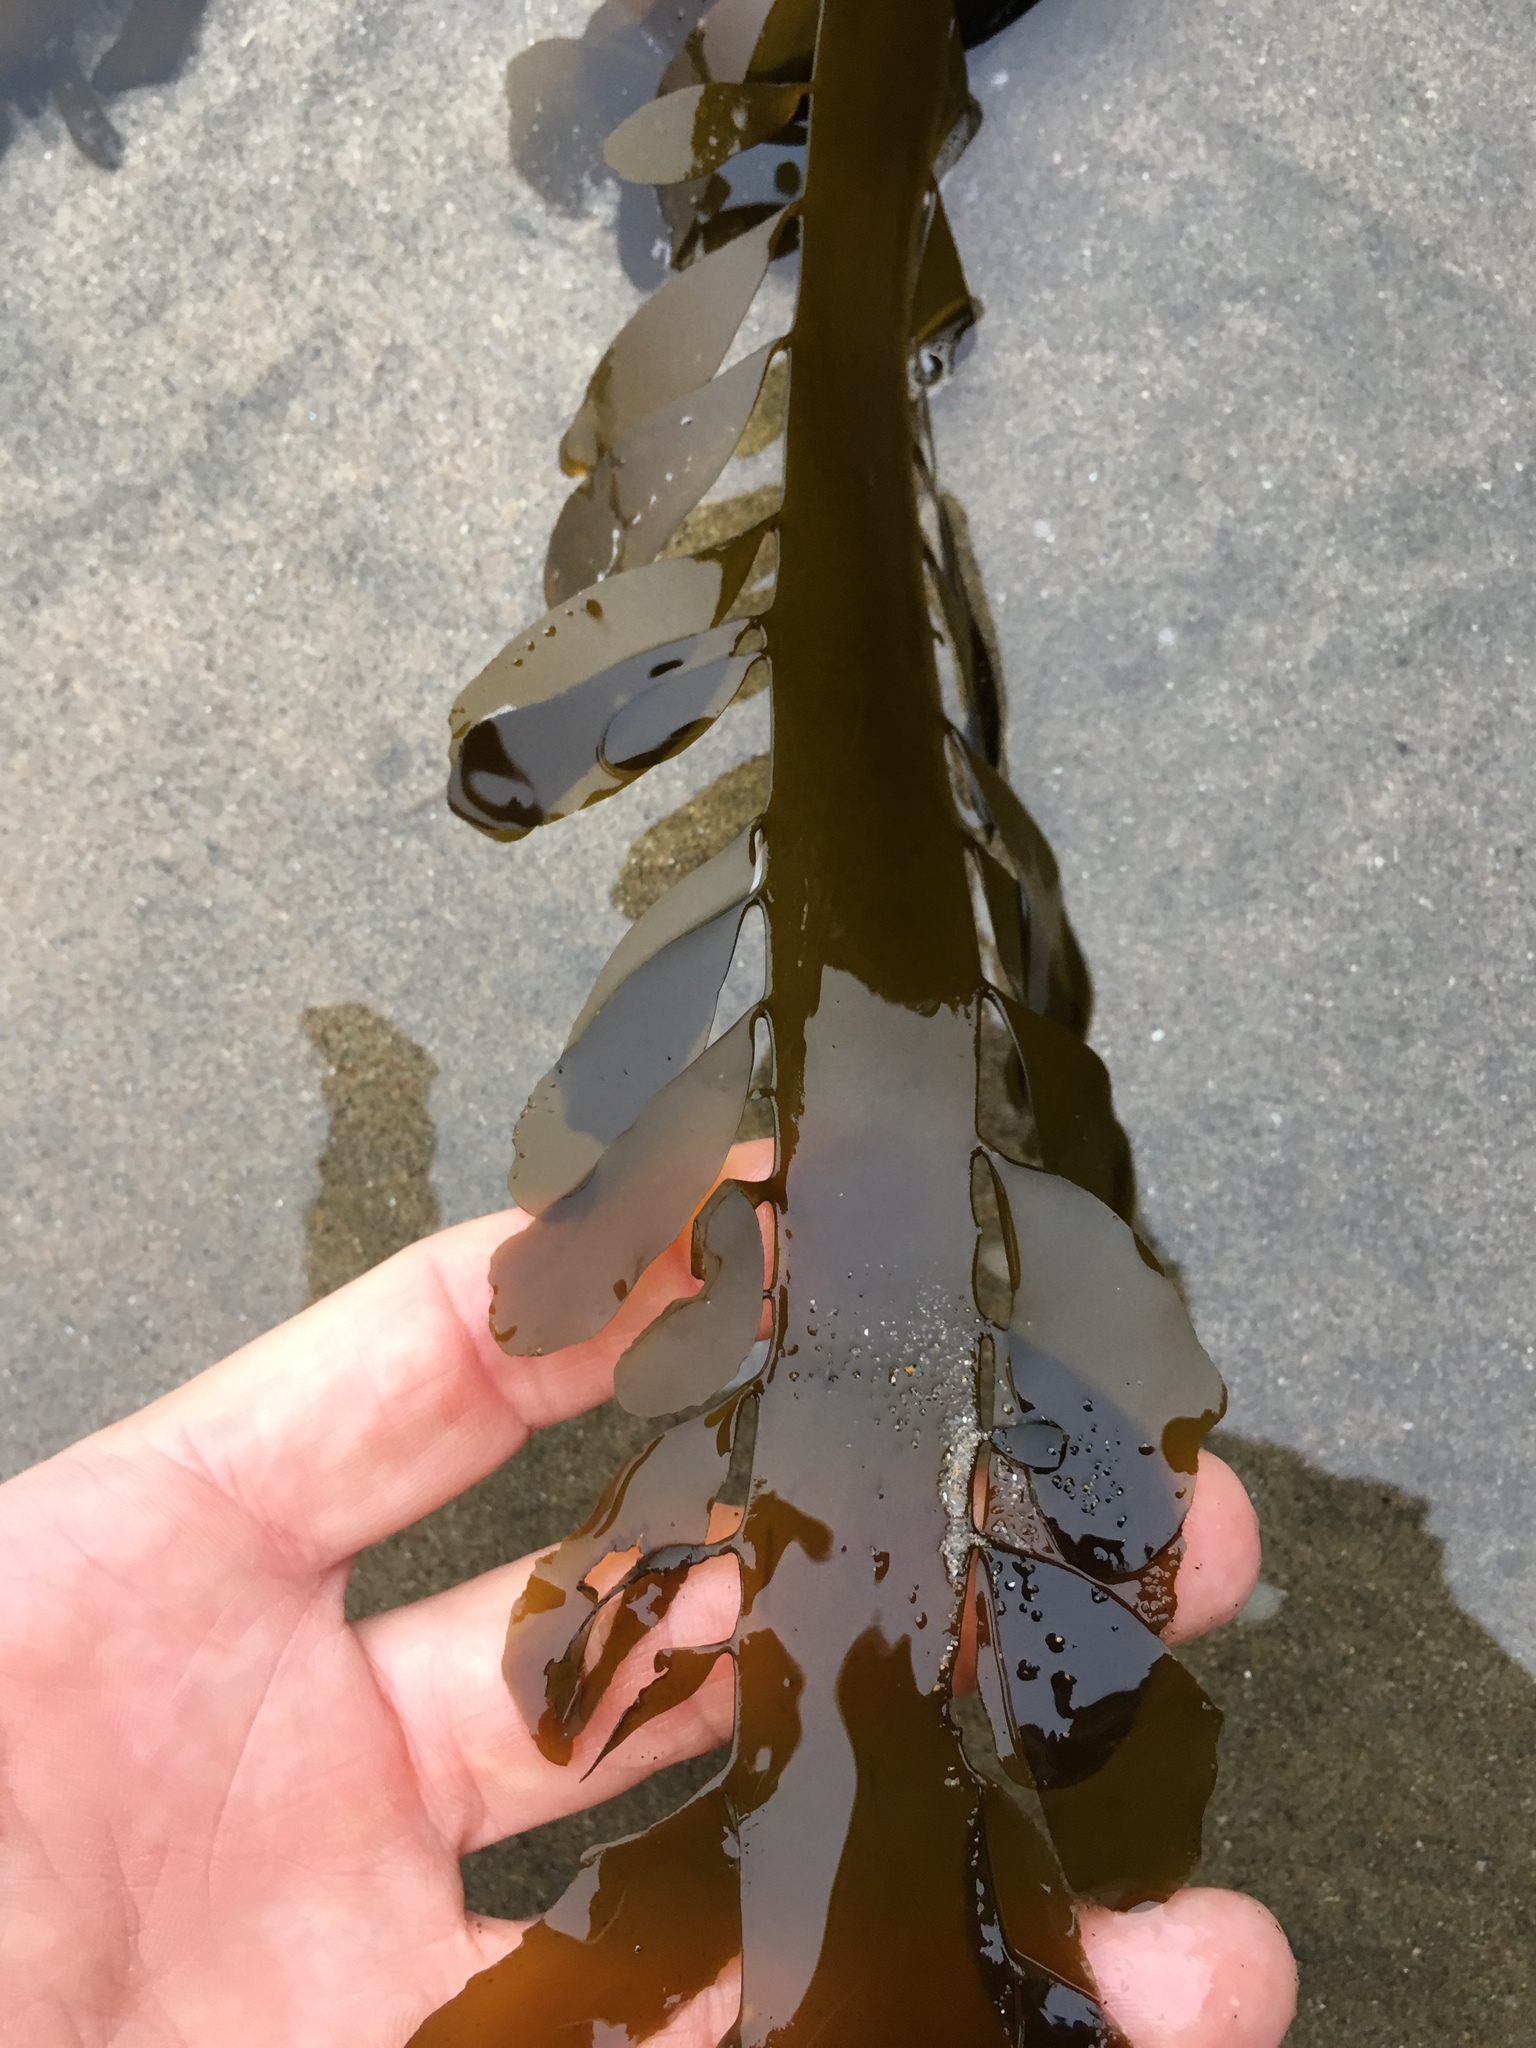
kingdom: Chromista
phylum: Ochrophyta
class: Phaeophyceae
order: Laminariales
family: Lessoniaceae
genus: Egregia
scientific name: Egregia menziesii
